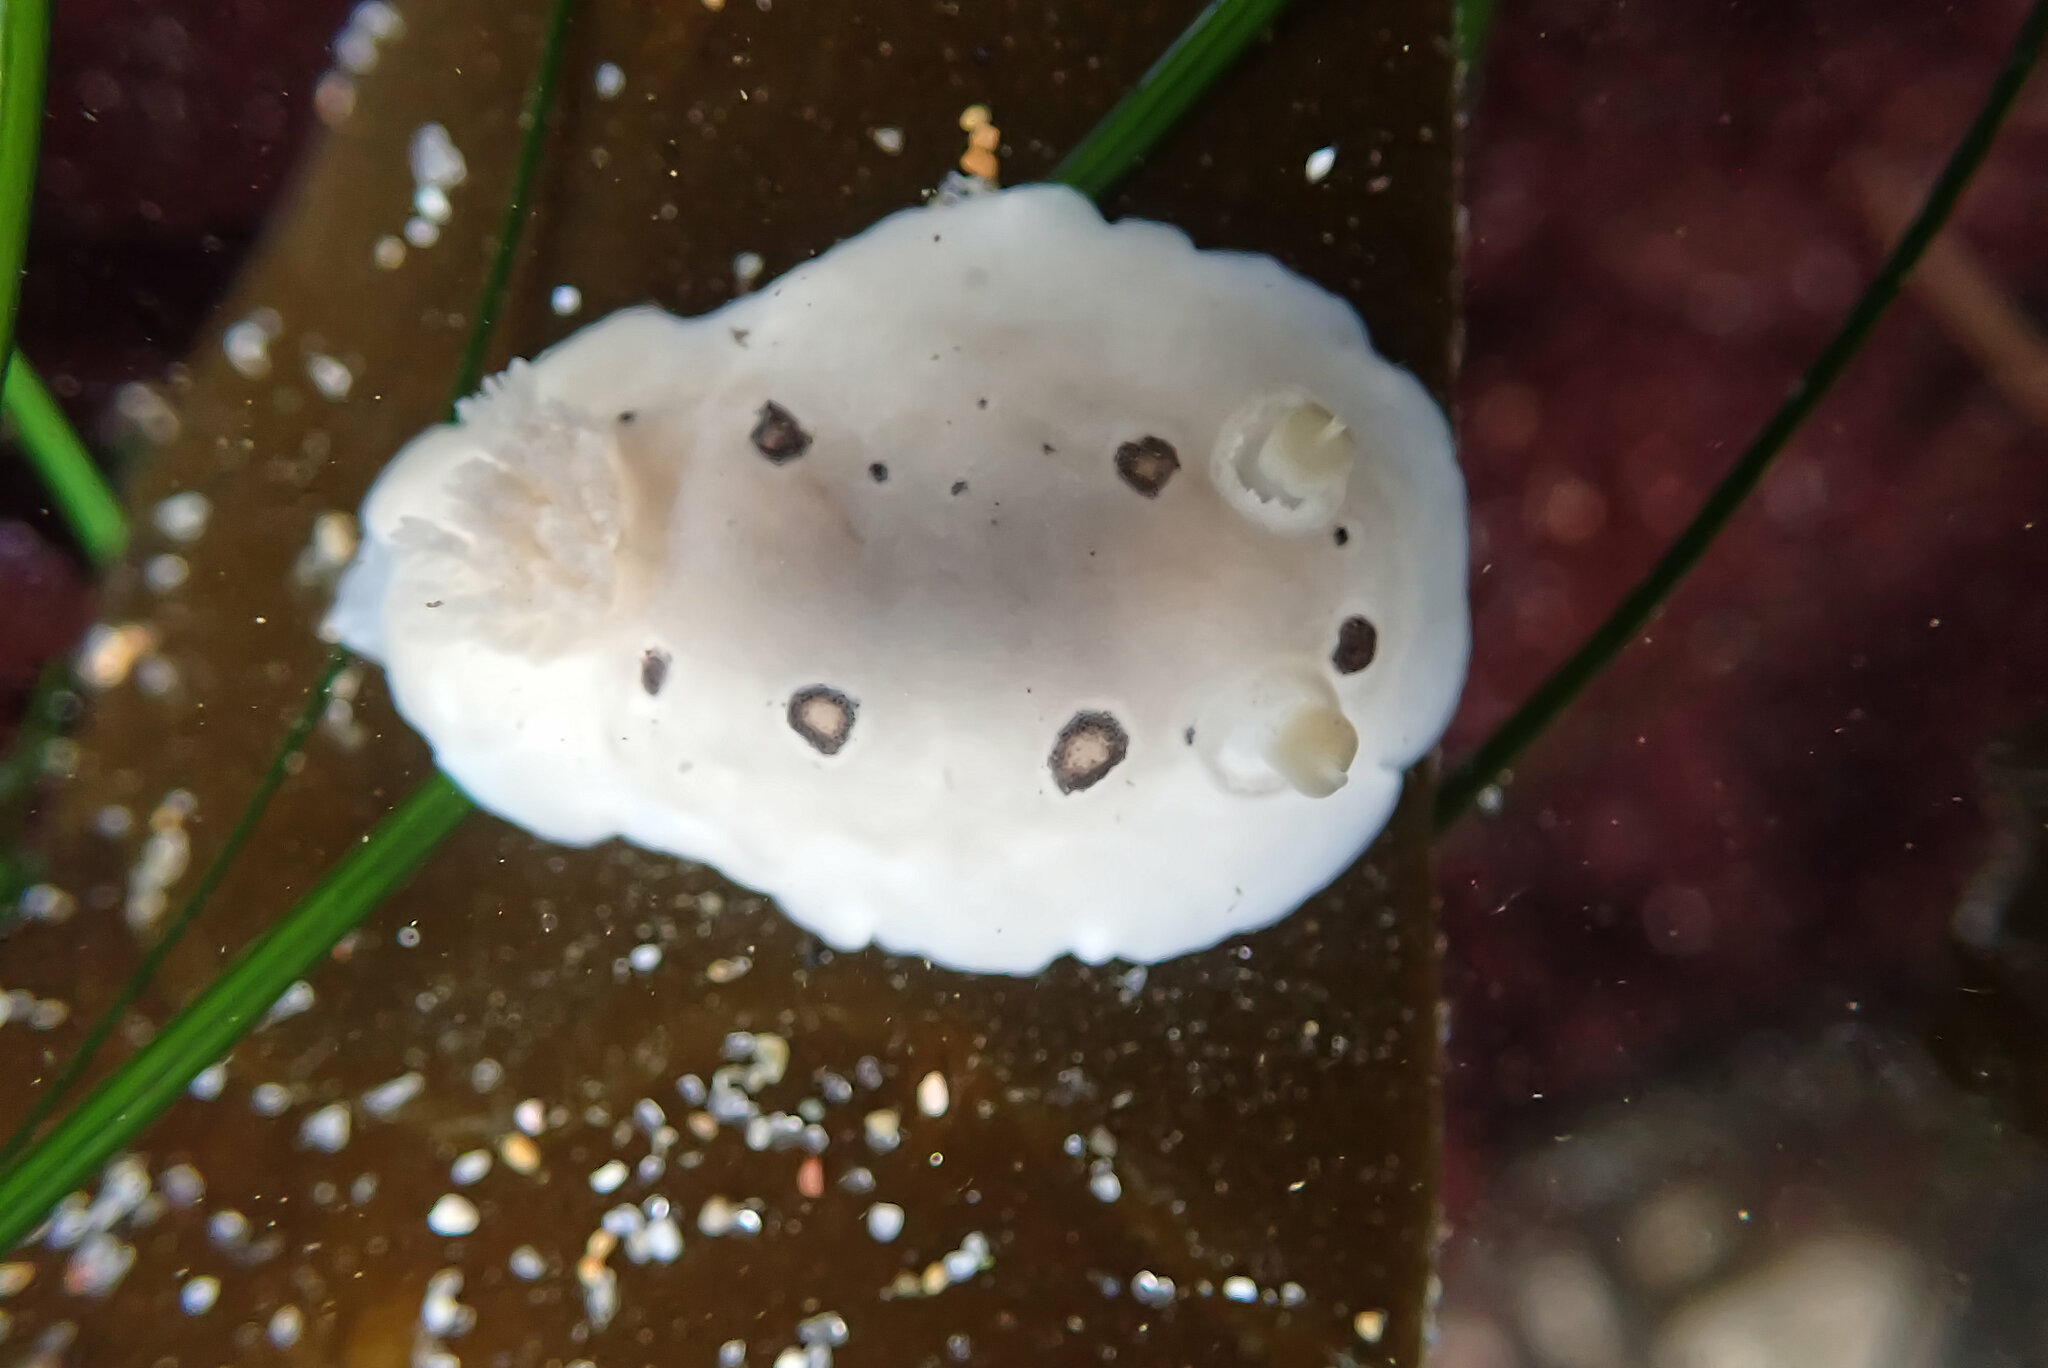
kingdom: Animalia
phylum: Mollusca
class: Gastropoda
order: Nudibranchia
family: Discodorididae
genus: Diaulula
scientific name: Diaulula sandiegensis
